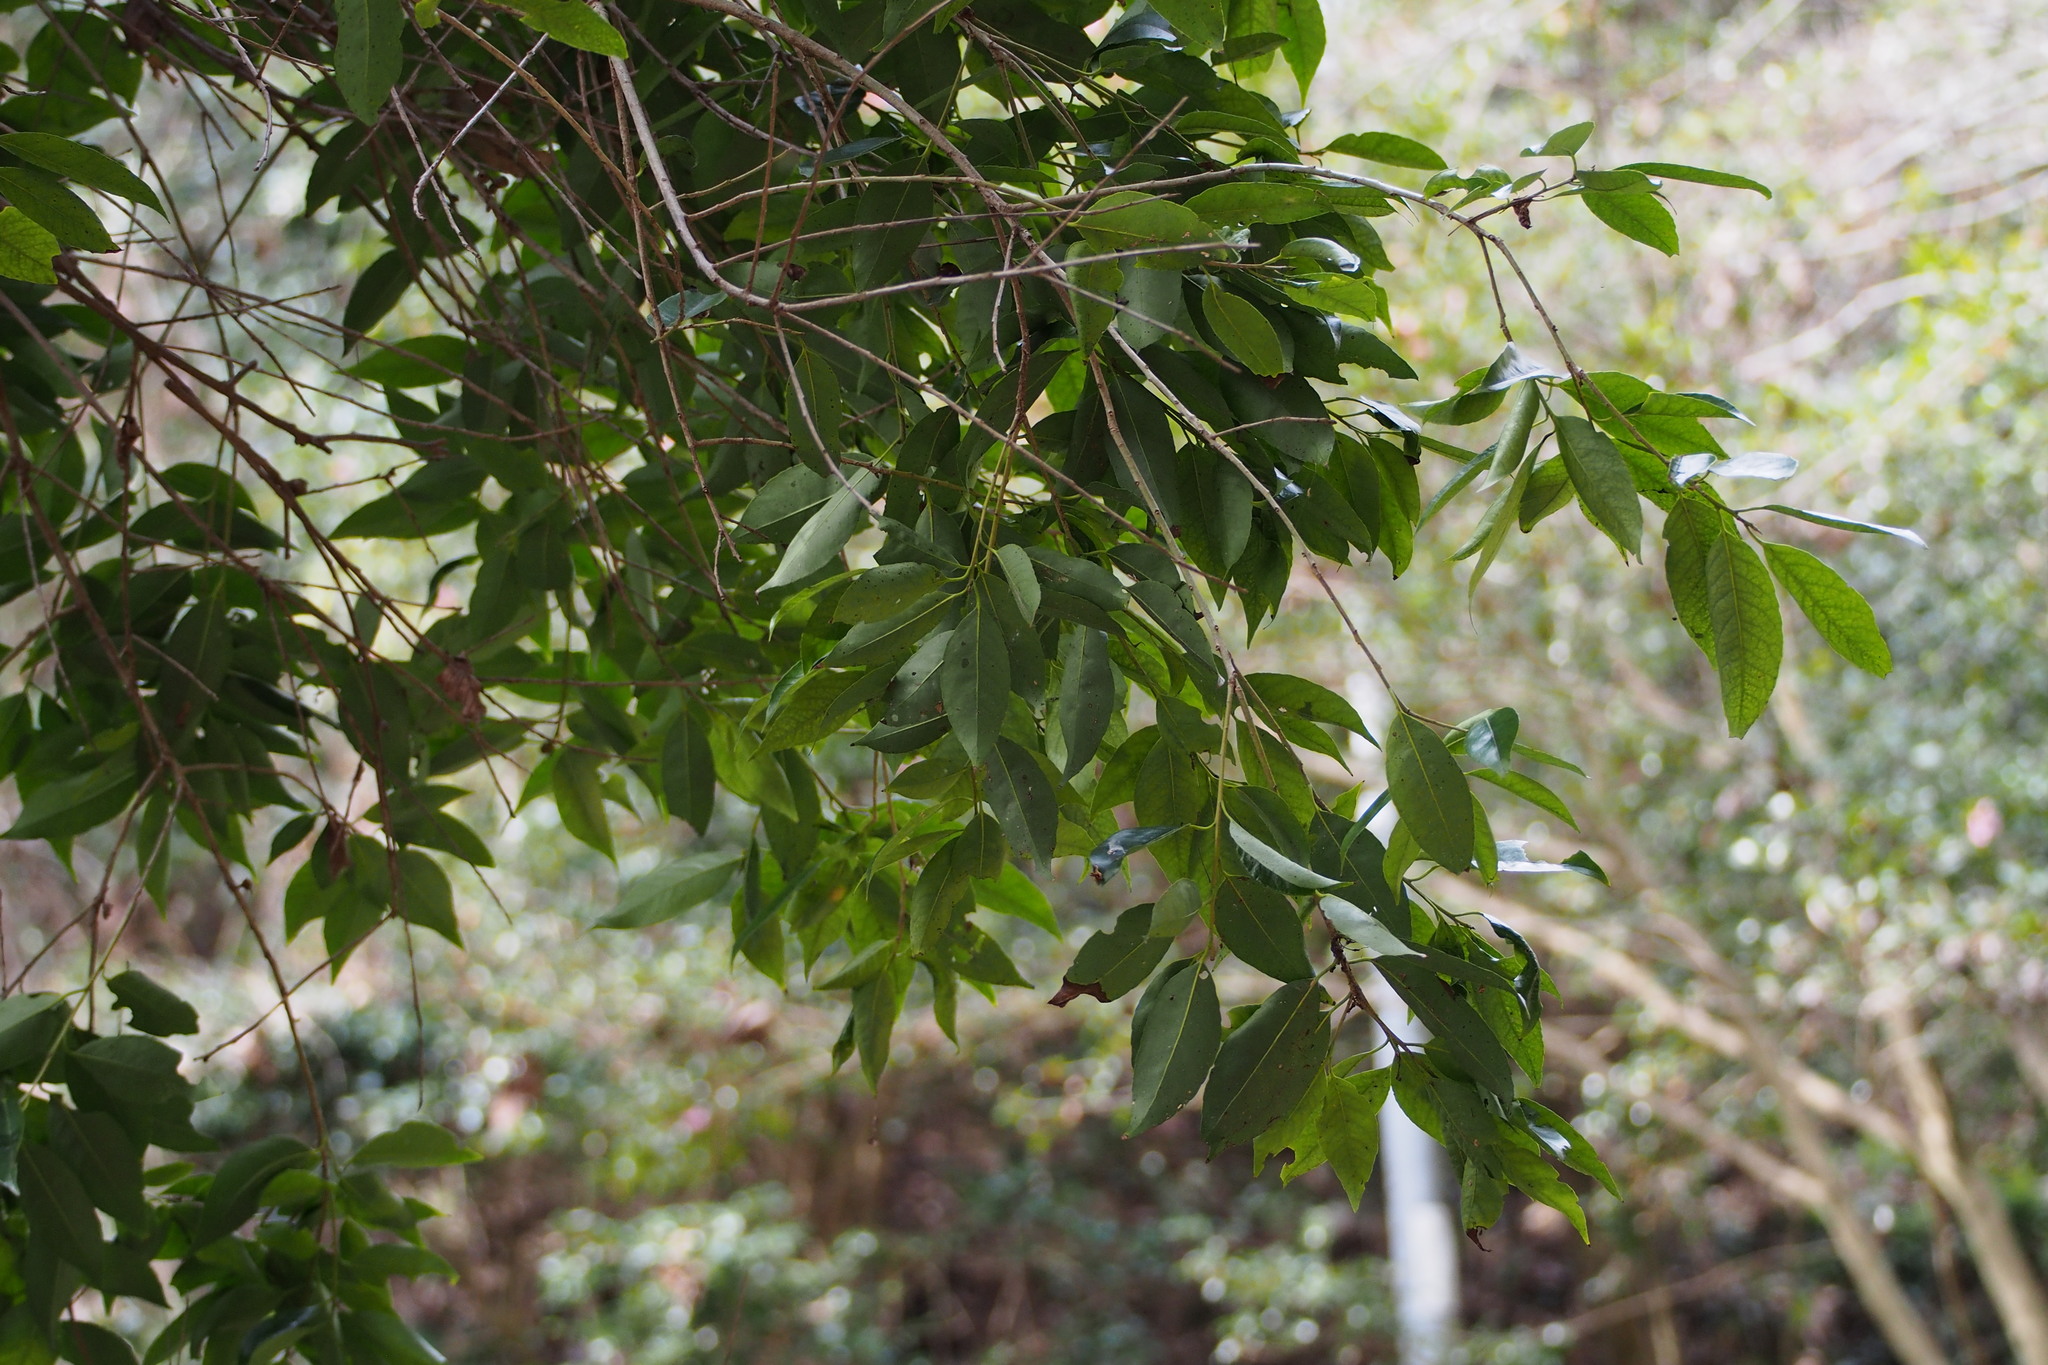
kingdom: Plantae
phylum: Tracheophyta
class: Magnoliopsida
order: Aquifoliales
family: Aquifoliaceae
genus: Ilex
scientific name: Ilex chinensis
